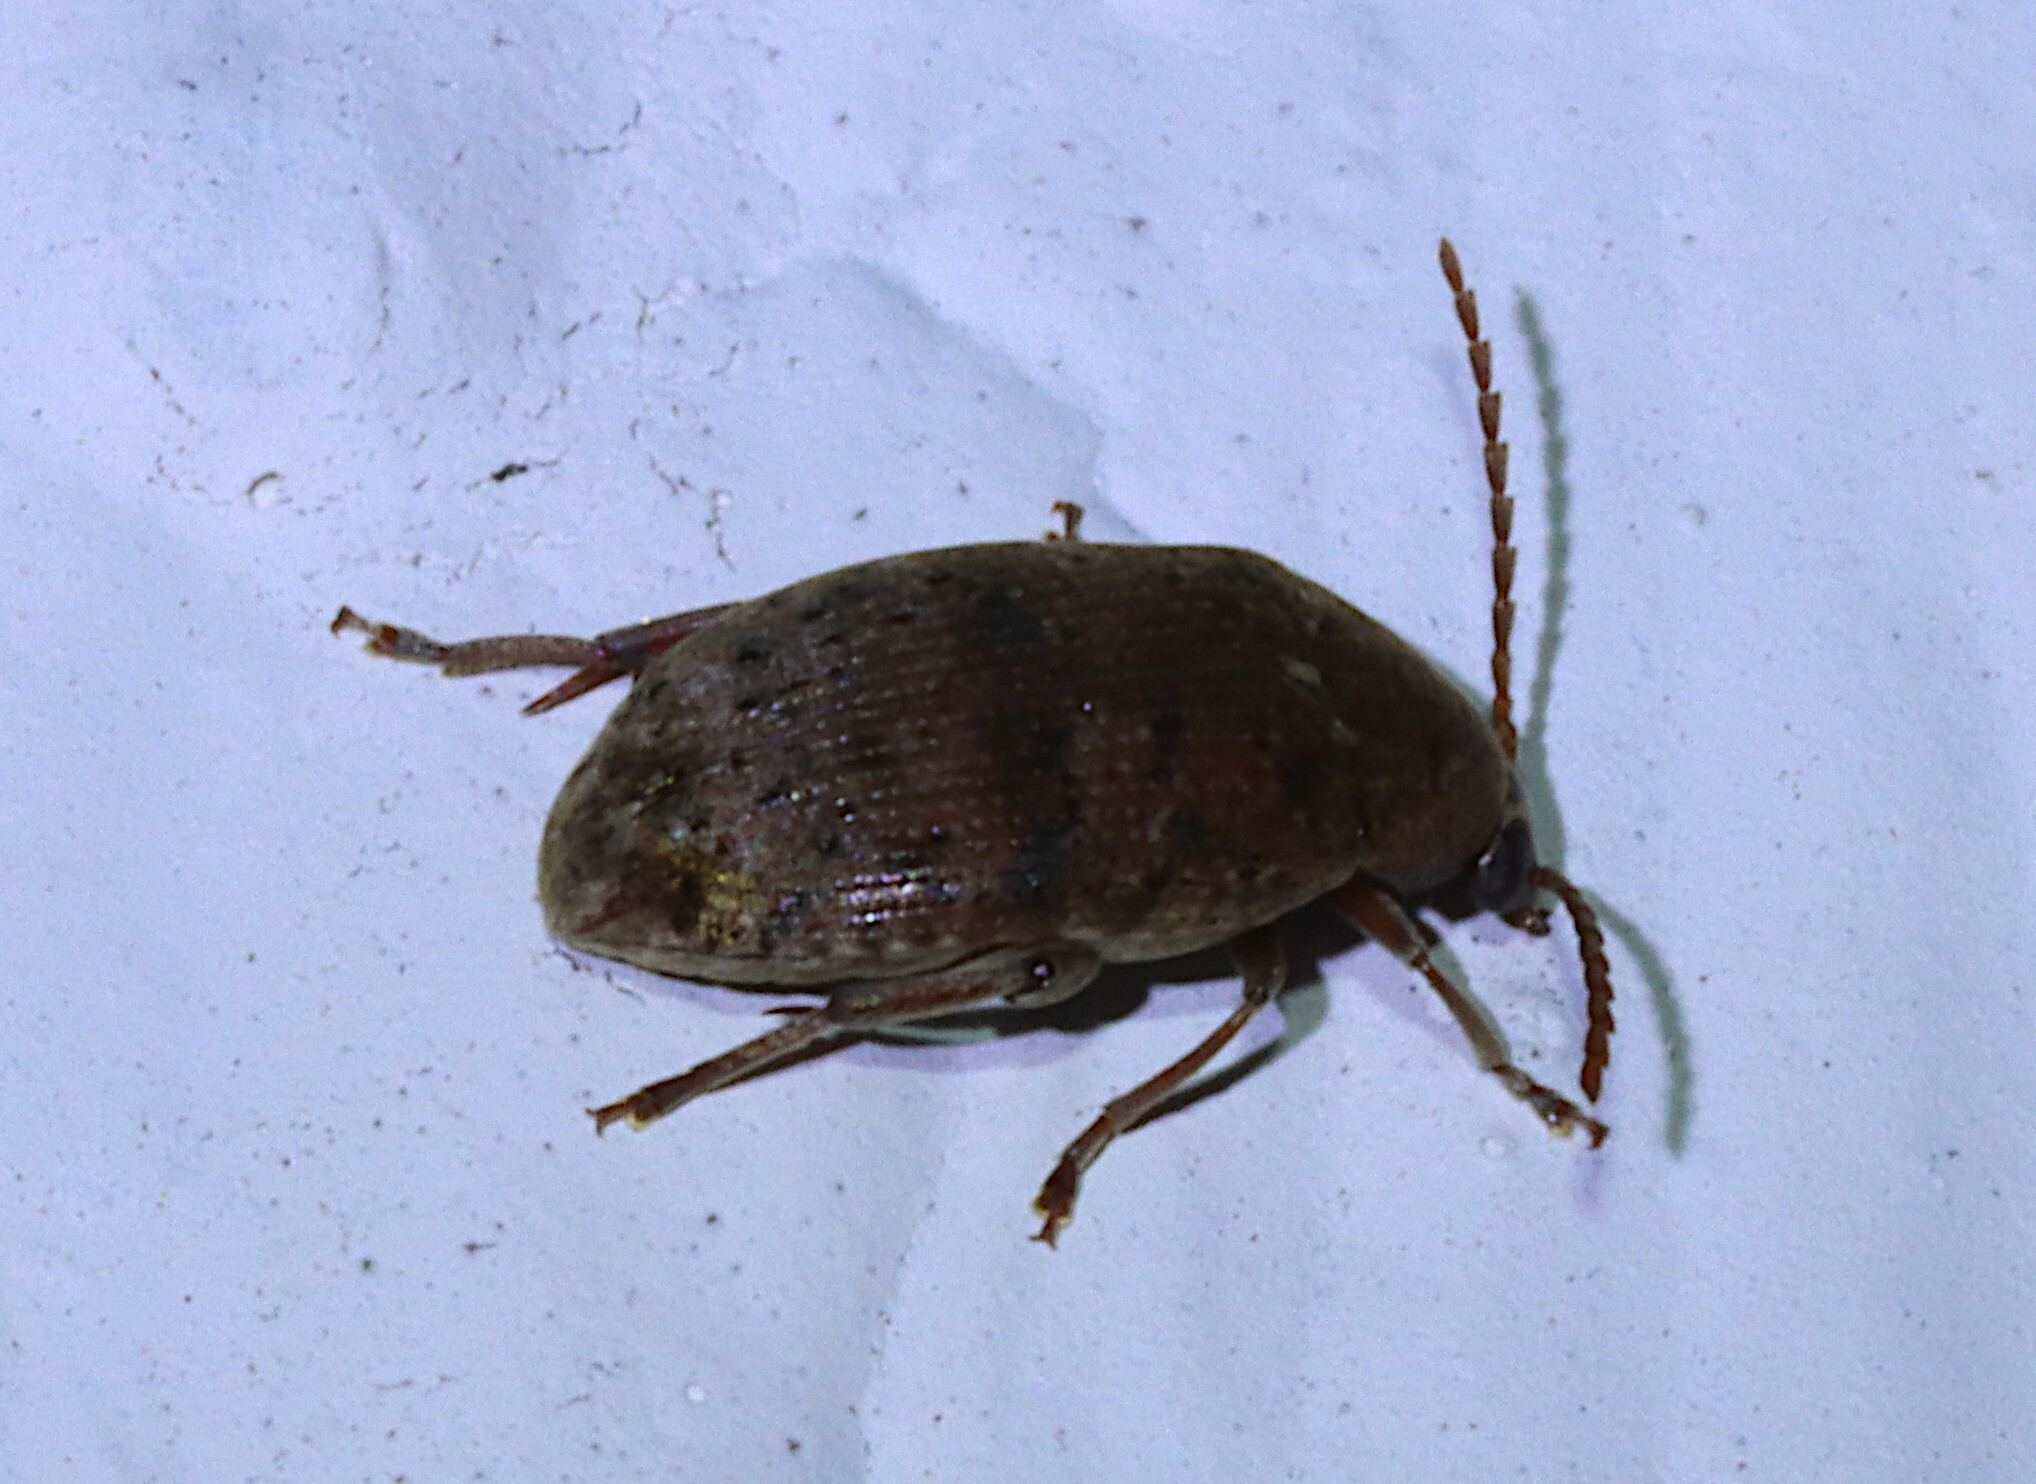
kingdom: Animalia
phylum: Arthropoda
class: Insecta
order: Coleoptera
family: Chrysomelidae
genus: Amblycerus
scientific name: Amblycerus robiniae
